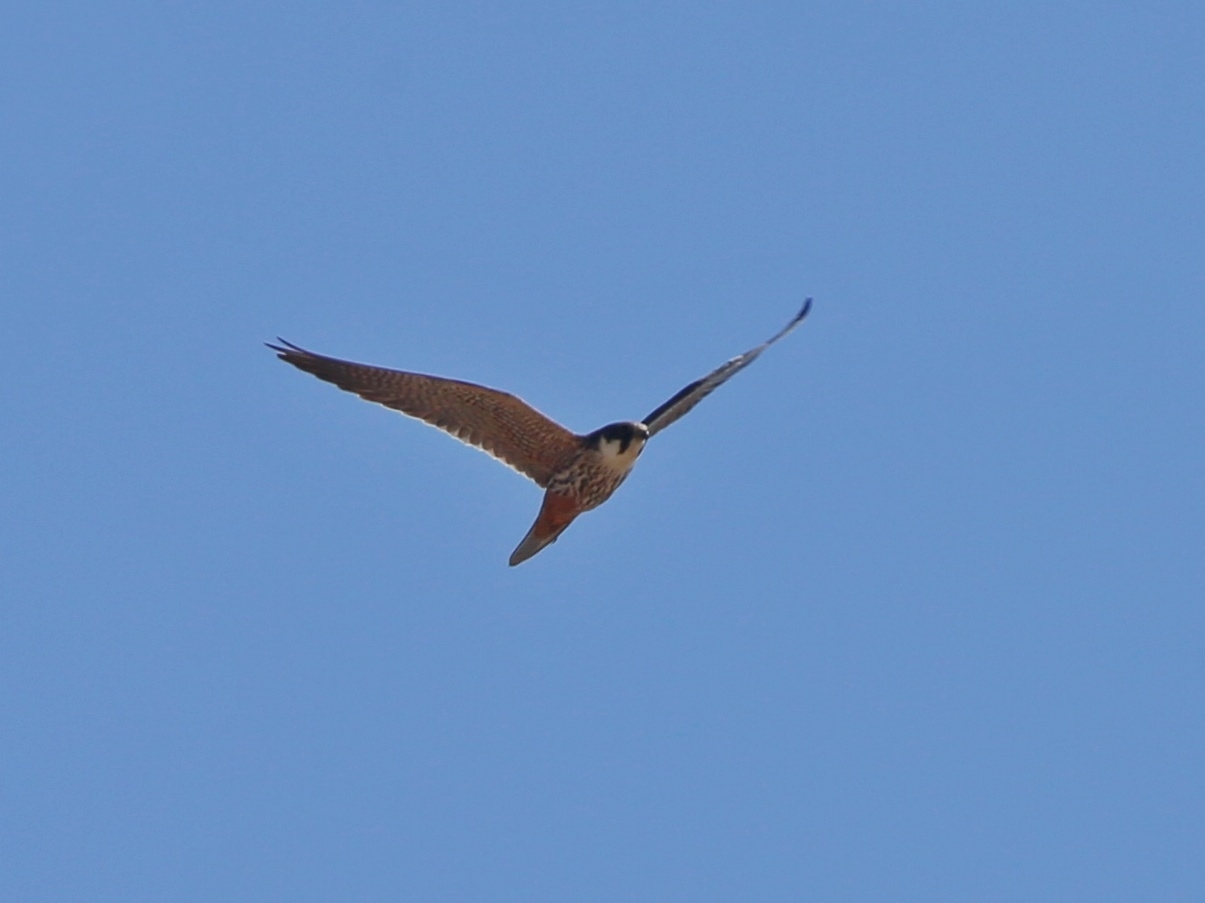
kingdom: Animalia
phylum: Chordata
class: Aves
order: Falconiformes
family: Falconidae
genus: Falco
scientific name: Falco subbuteo
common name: Eurasian hobby
